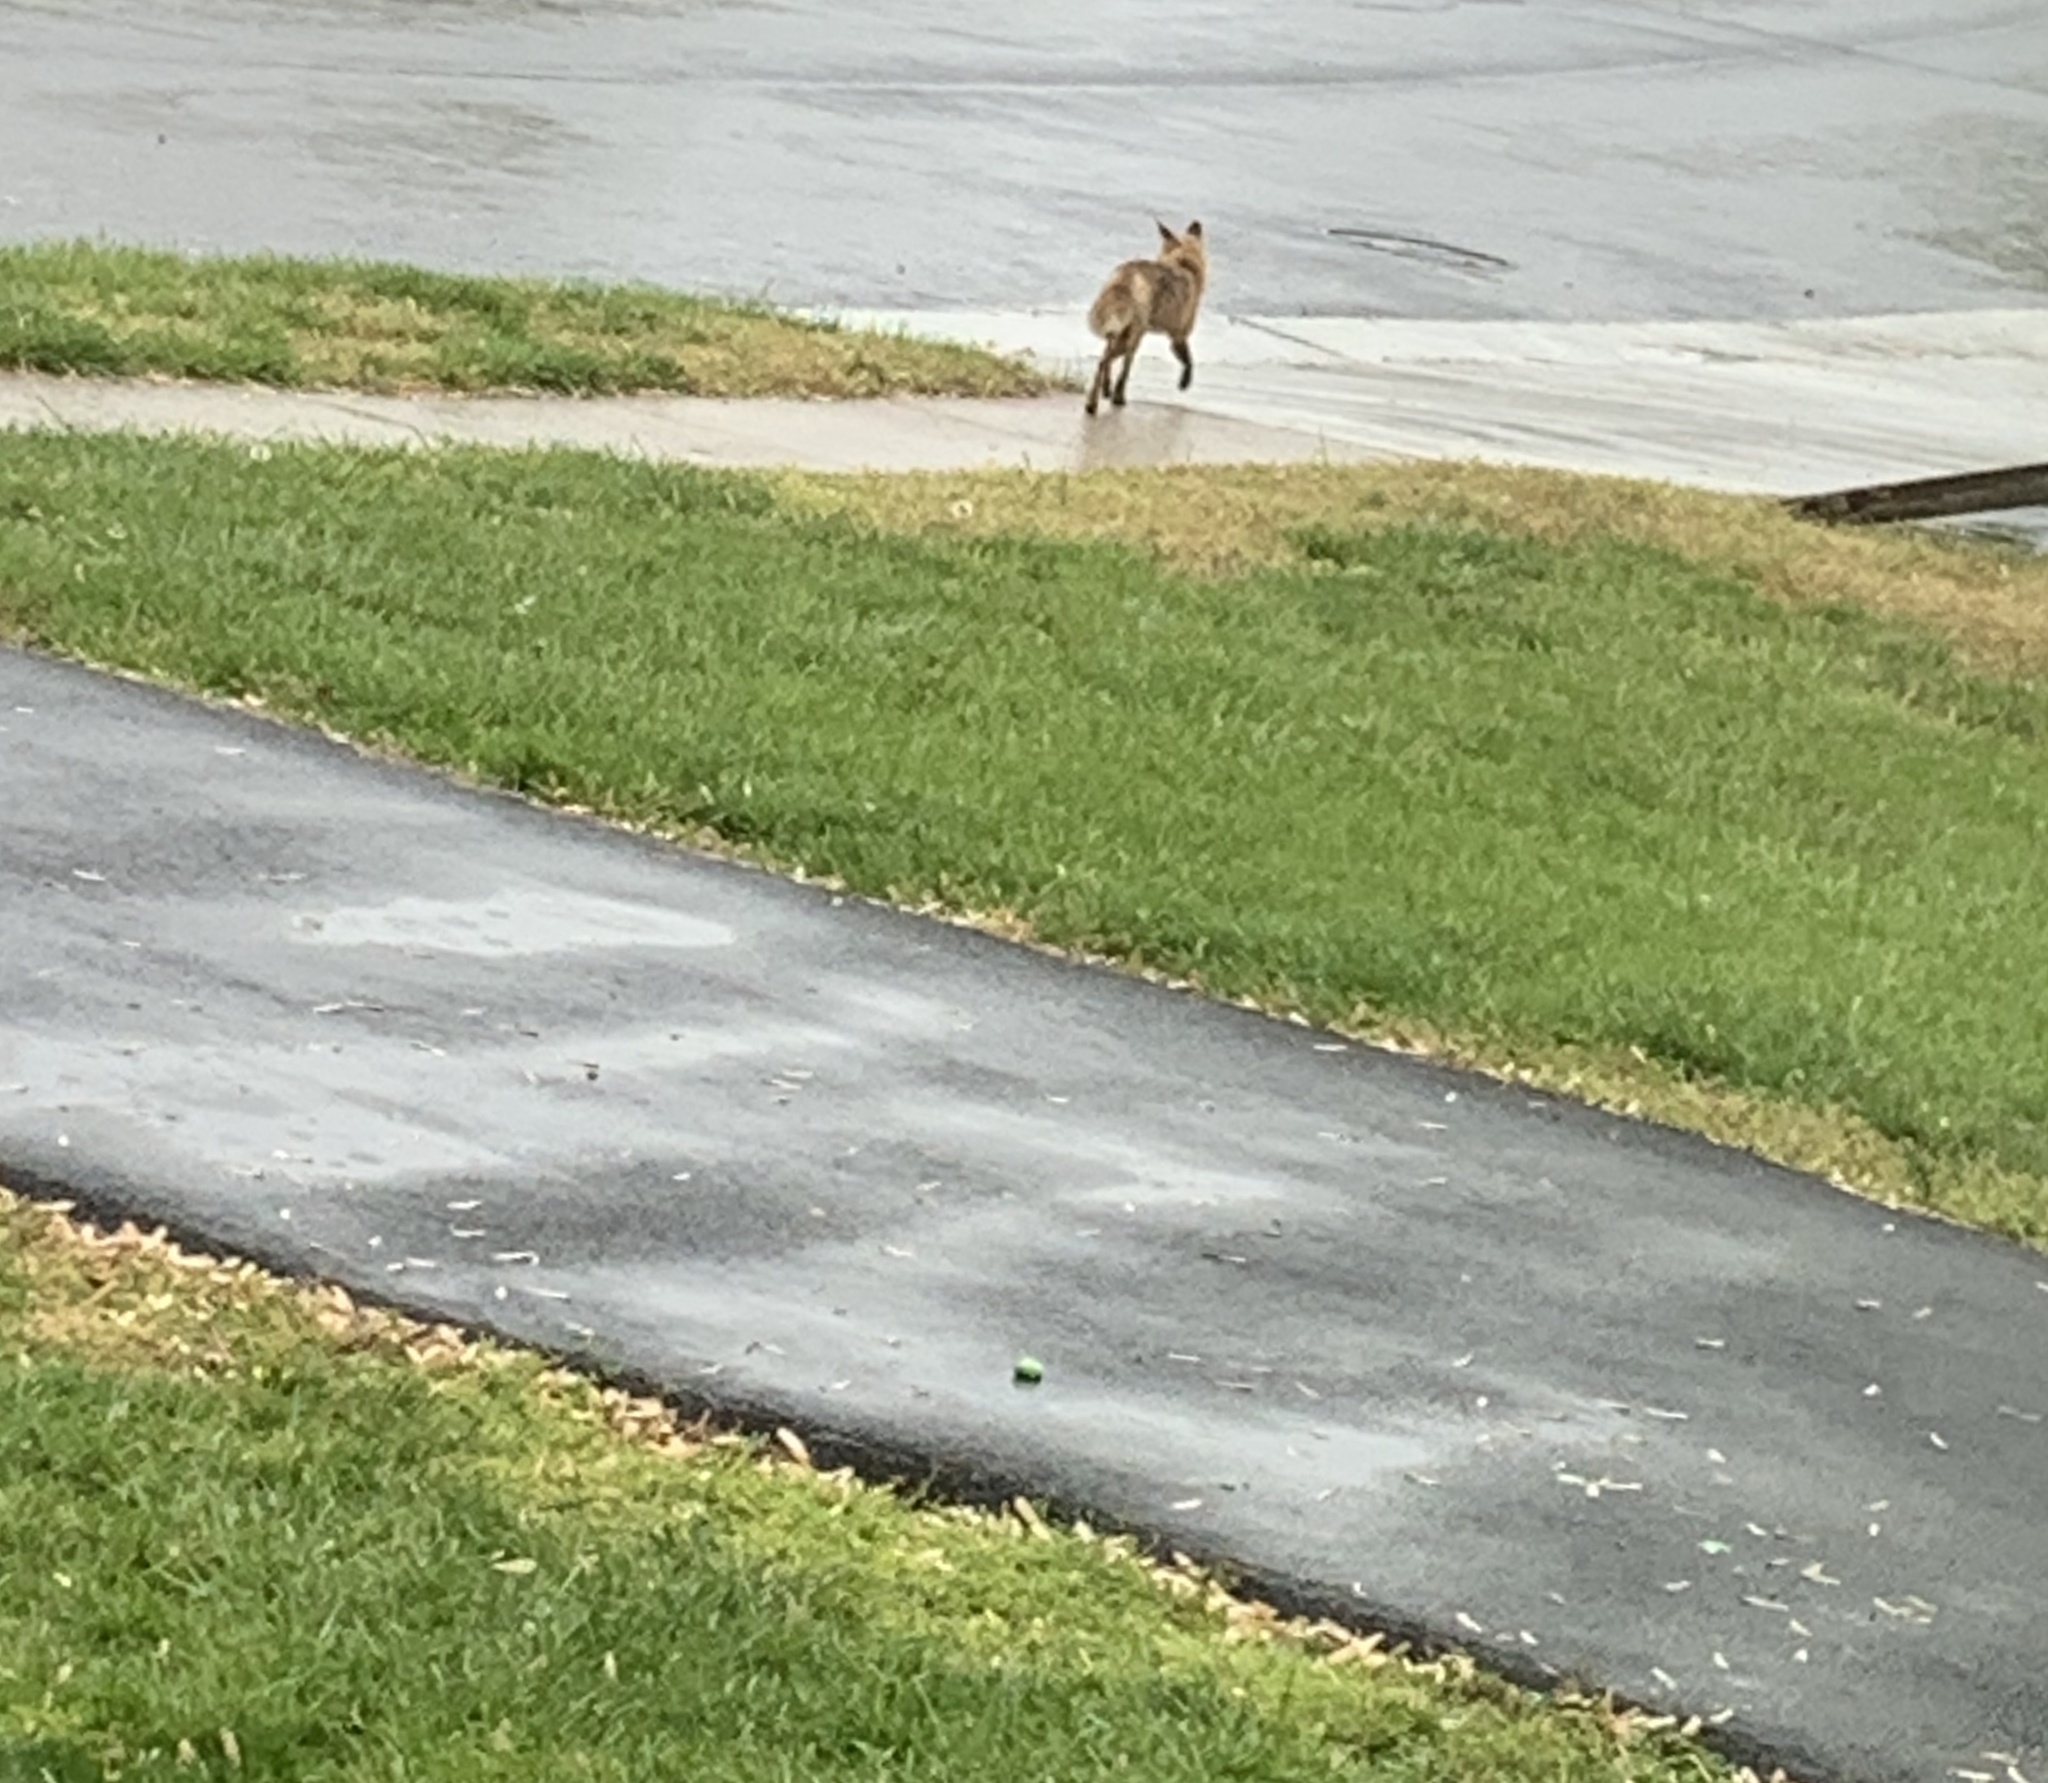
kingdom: Animalia
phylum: Chordata
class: Mammalia
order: Carnivora
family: Canidae
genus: Vulpes
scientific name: Vulpes vulpes
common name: Red fox
